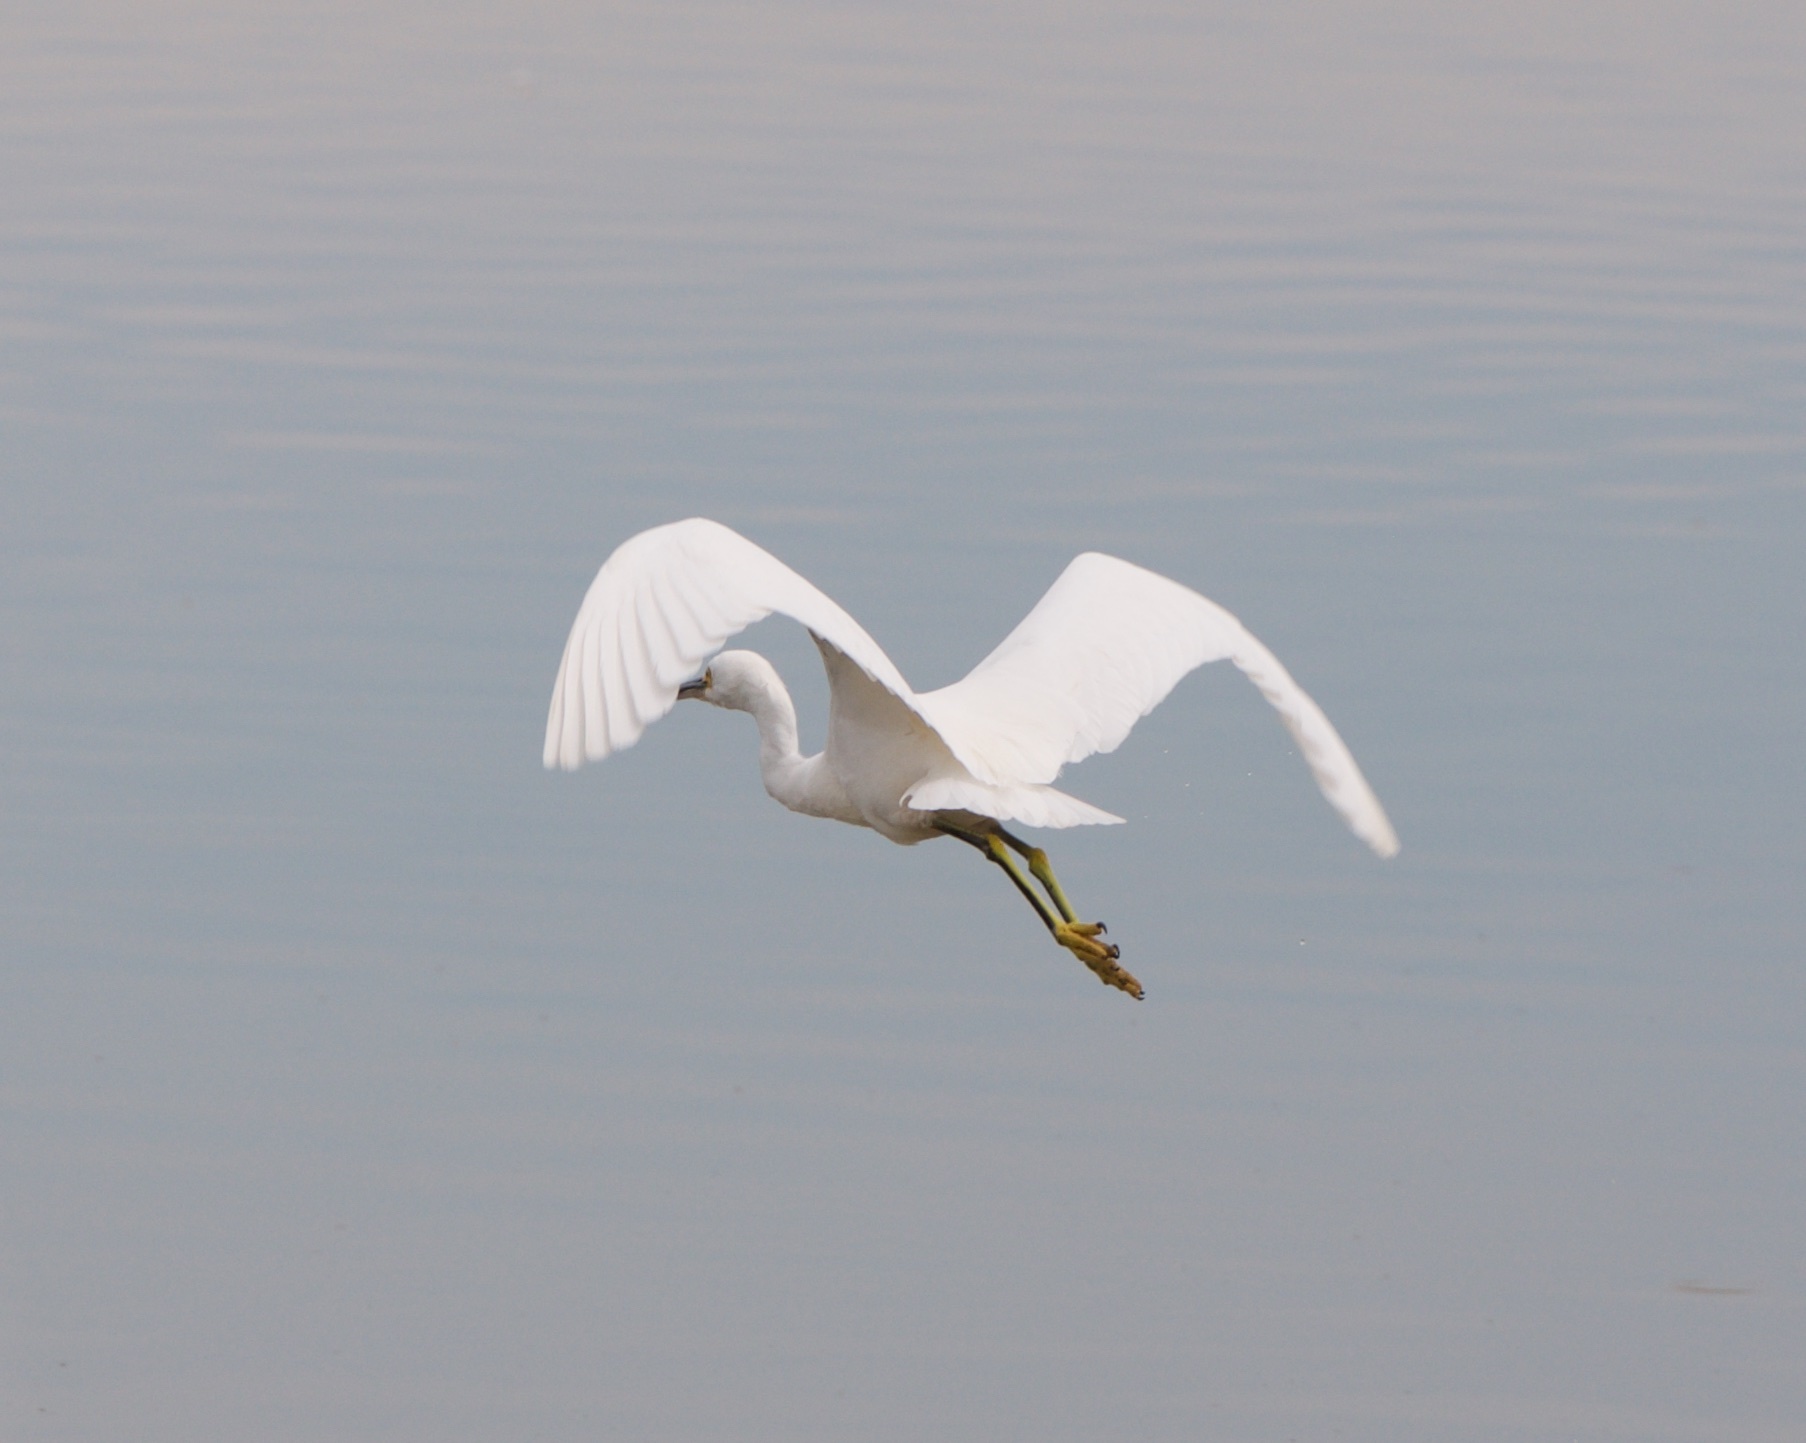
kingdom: Animalia
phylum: Chordata
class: Aves
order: Pelecaniformes
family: Ardeidae
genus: Egretta
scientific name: Egretta thula
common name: Snowy egret
